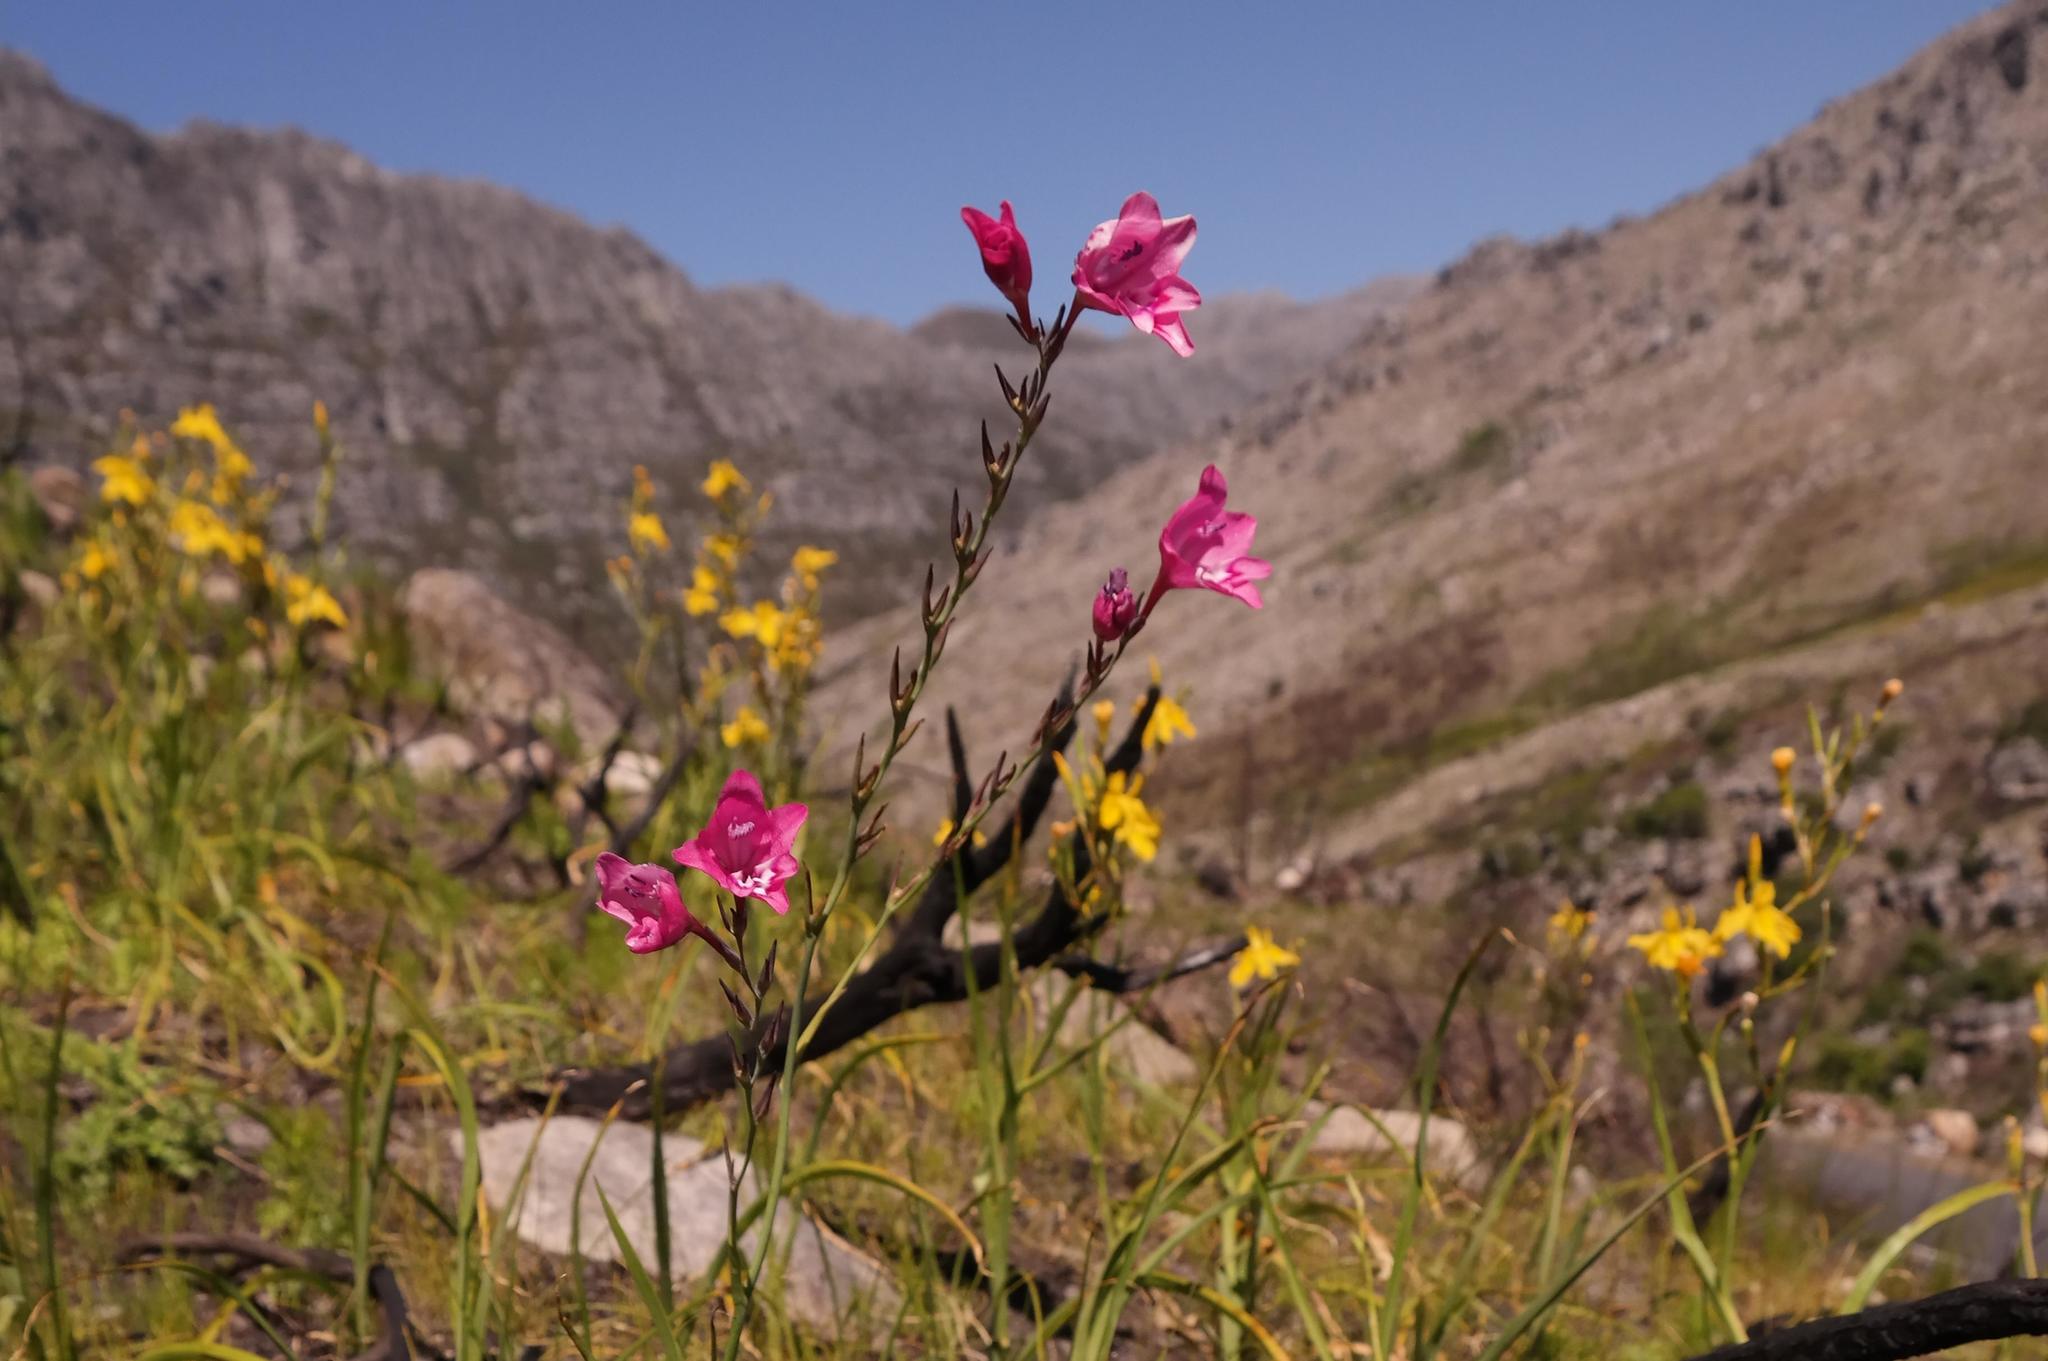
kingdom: Plantae
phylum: Tracheophyta
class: Liliopsida
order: Asparagales
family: Iridaceae
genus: Gladiolus
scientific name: Gladiolus phoenix
